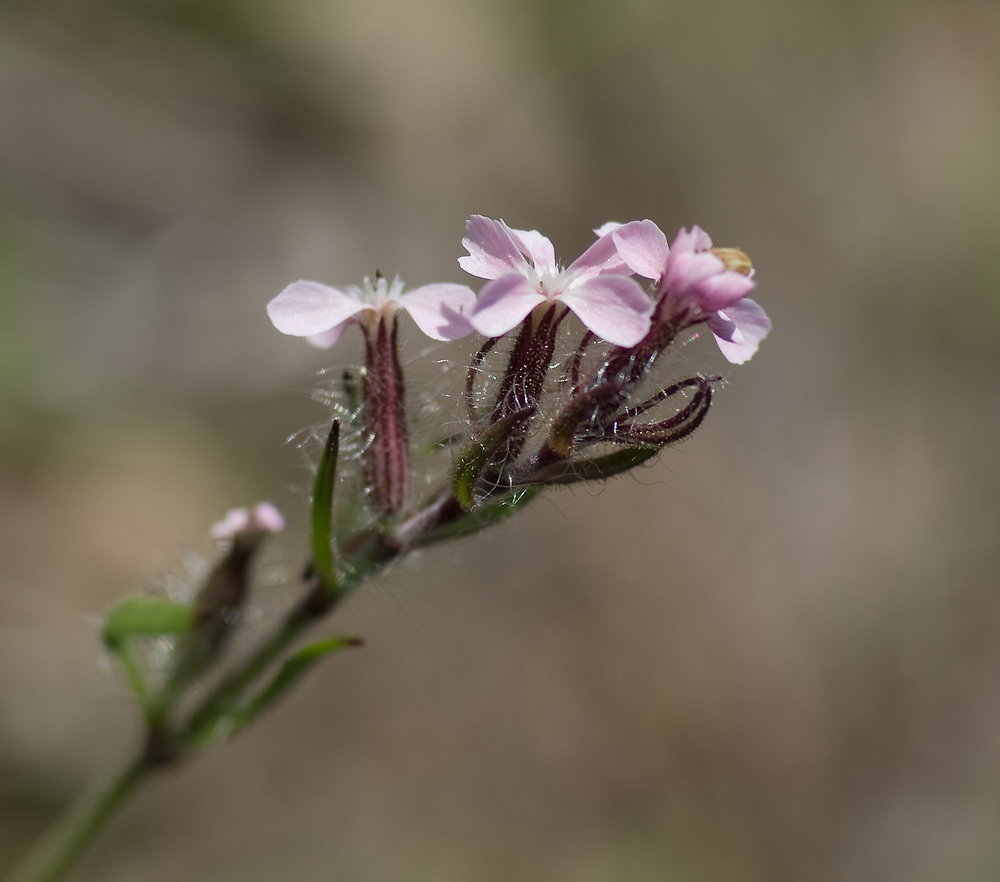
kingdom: Plantae
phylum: Tracheophyta
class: Magnoliopsida
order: Caryophyllales
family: Caryophyllaceae
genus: Silene
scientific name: Silene gallica
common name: Small-flowered catchfly
